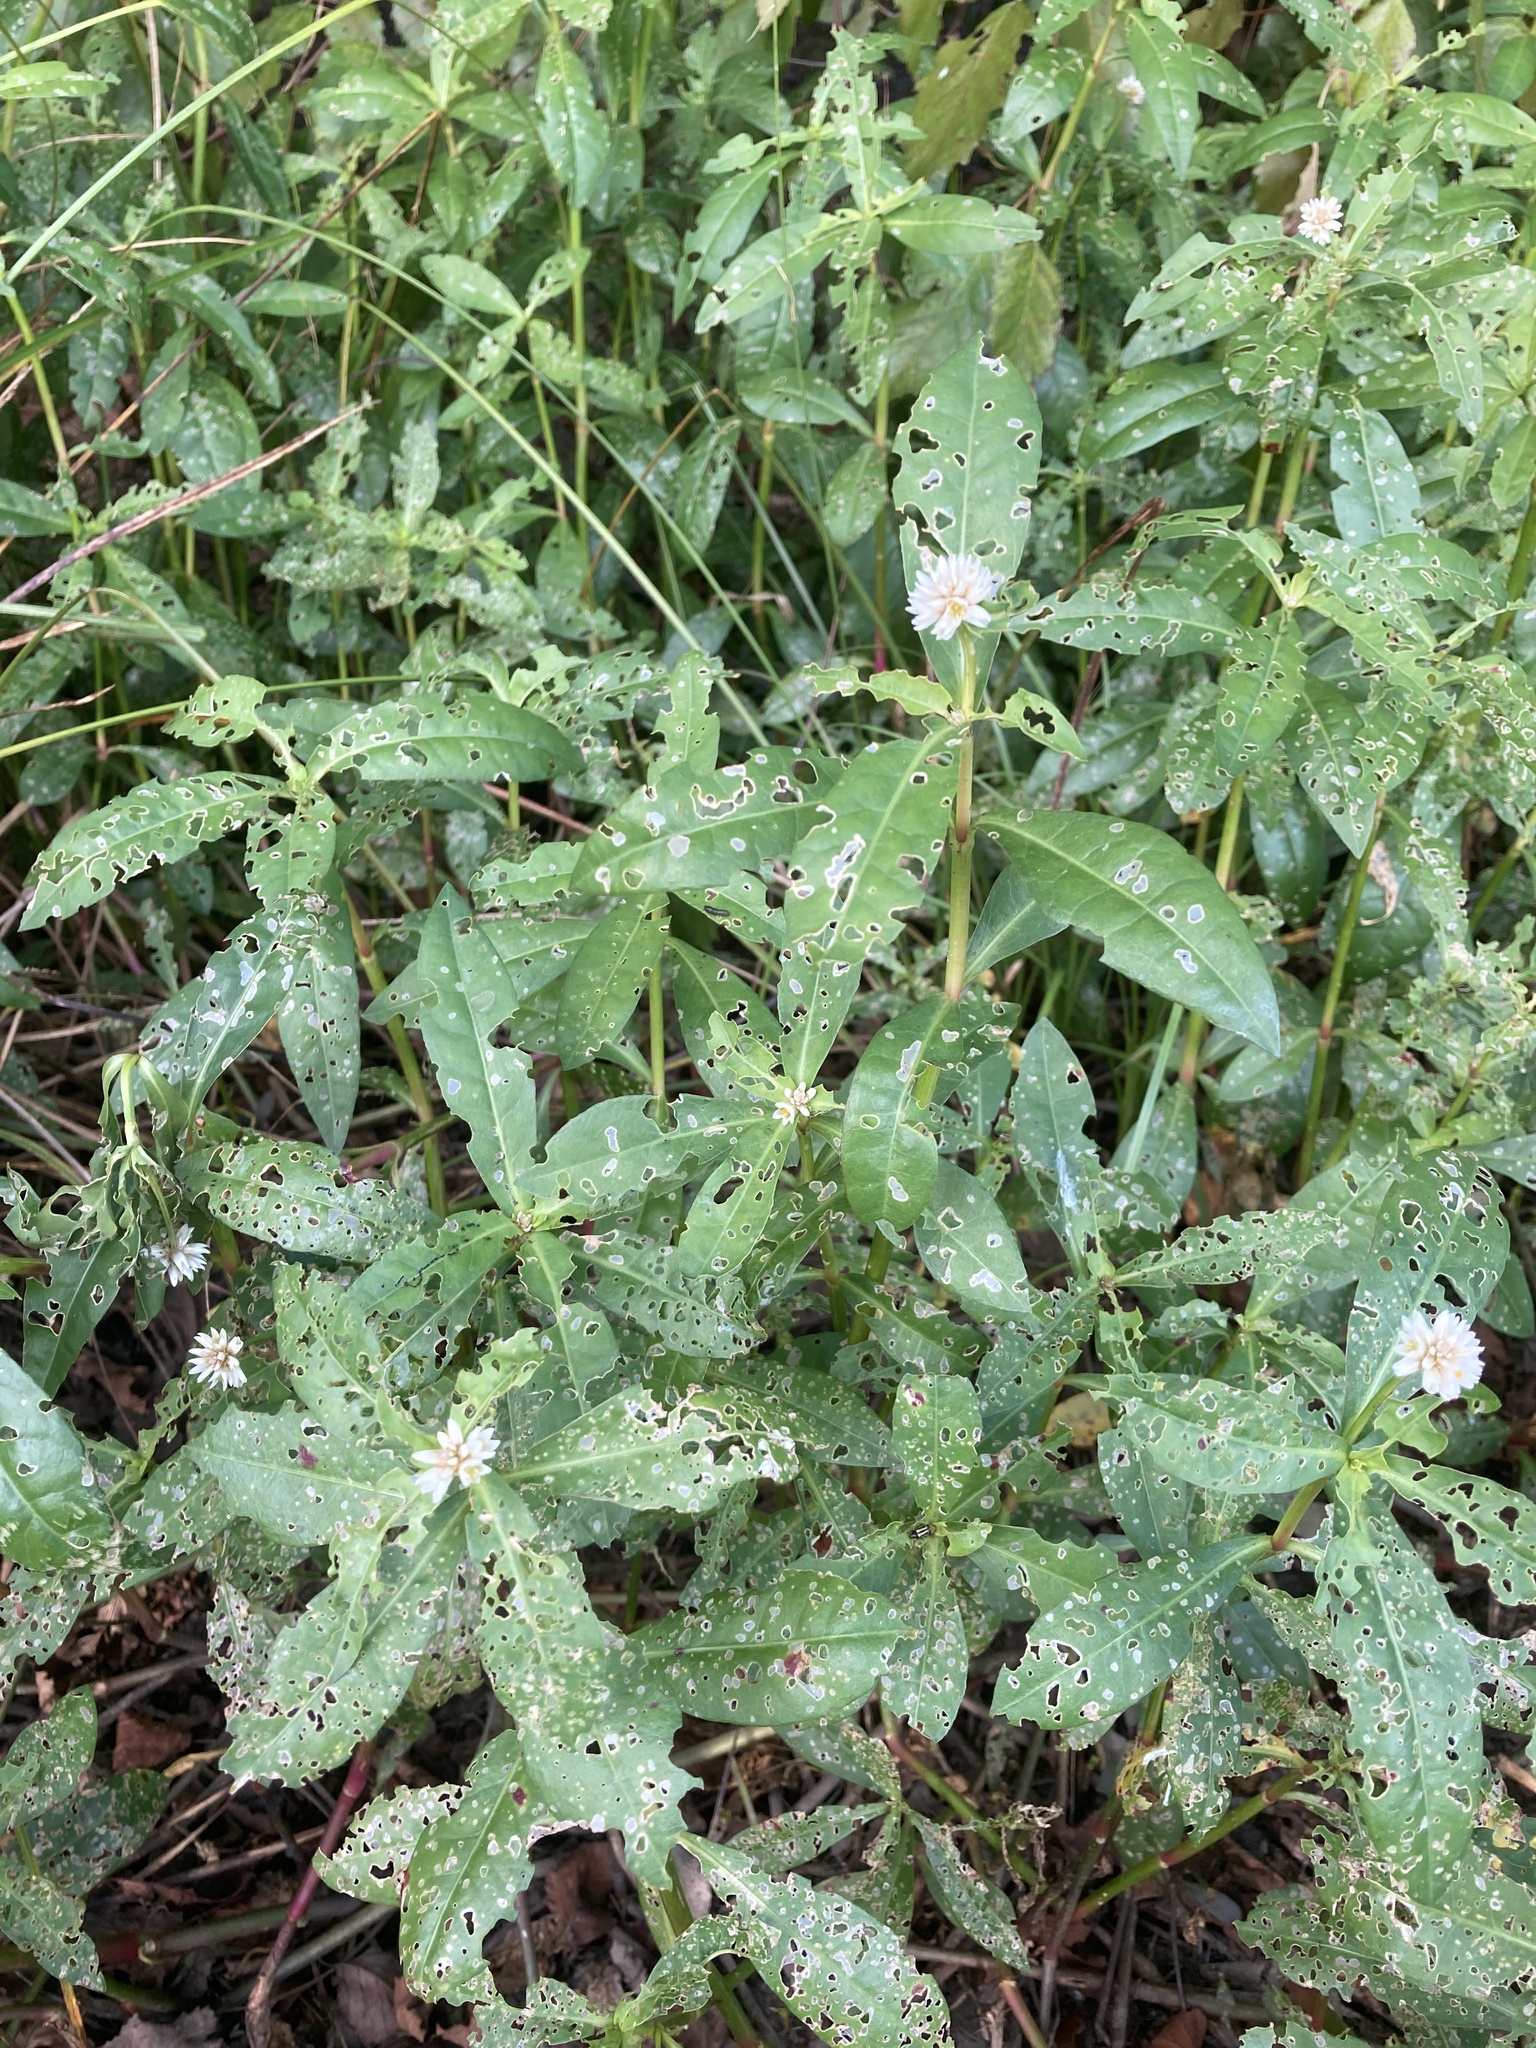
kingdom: Plantae
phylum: Tracheophyta
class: Magnoliopsida
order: Caryophyllales
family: Amaranthaceae
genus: Alternanthera
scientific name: Alternanthera philoxeroides
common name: Alligatorweed
